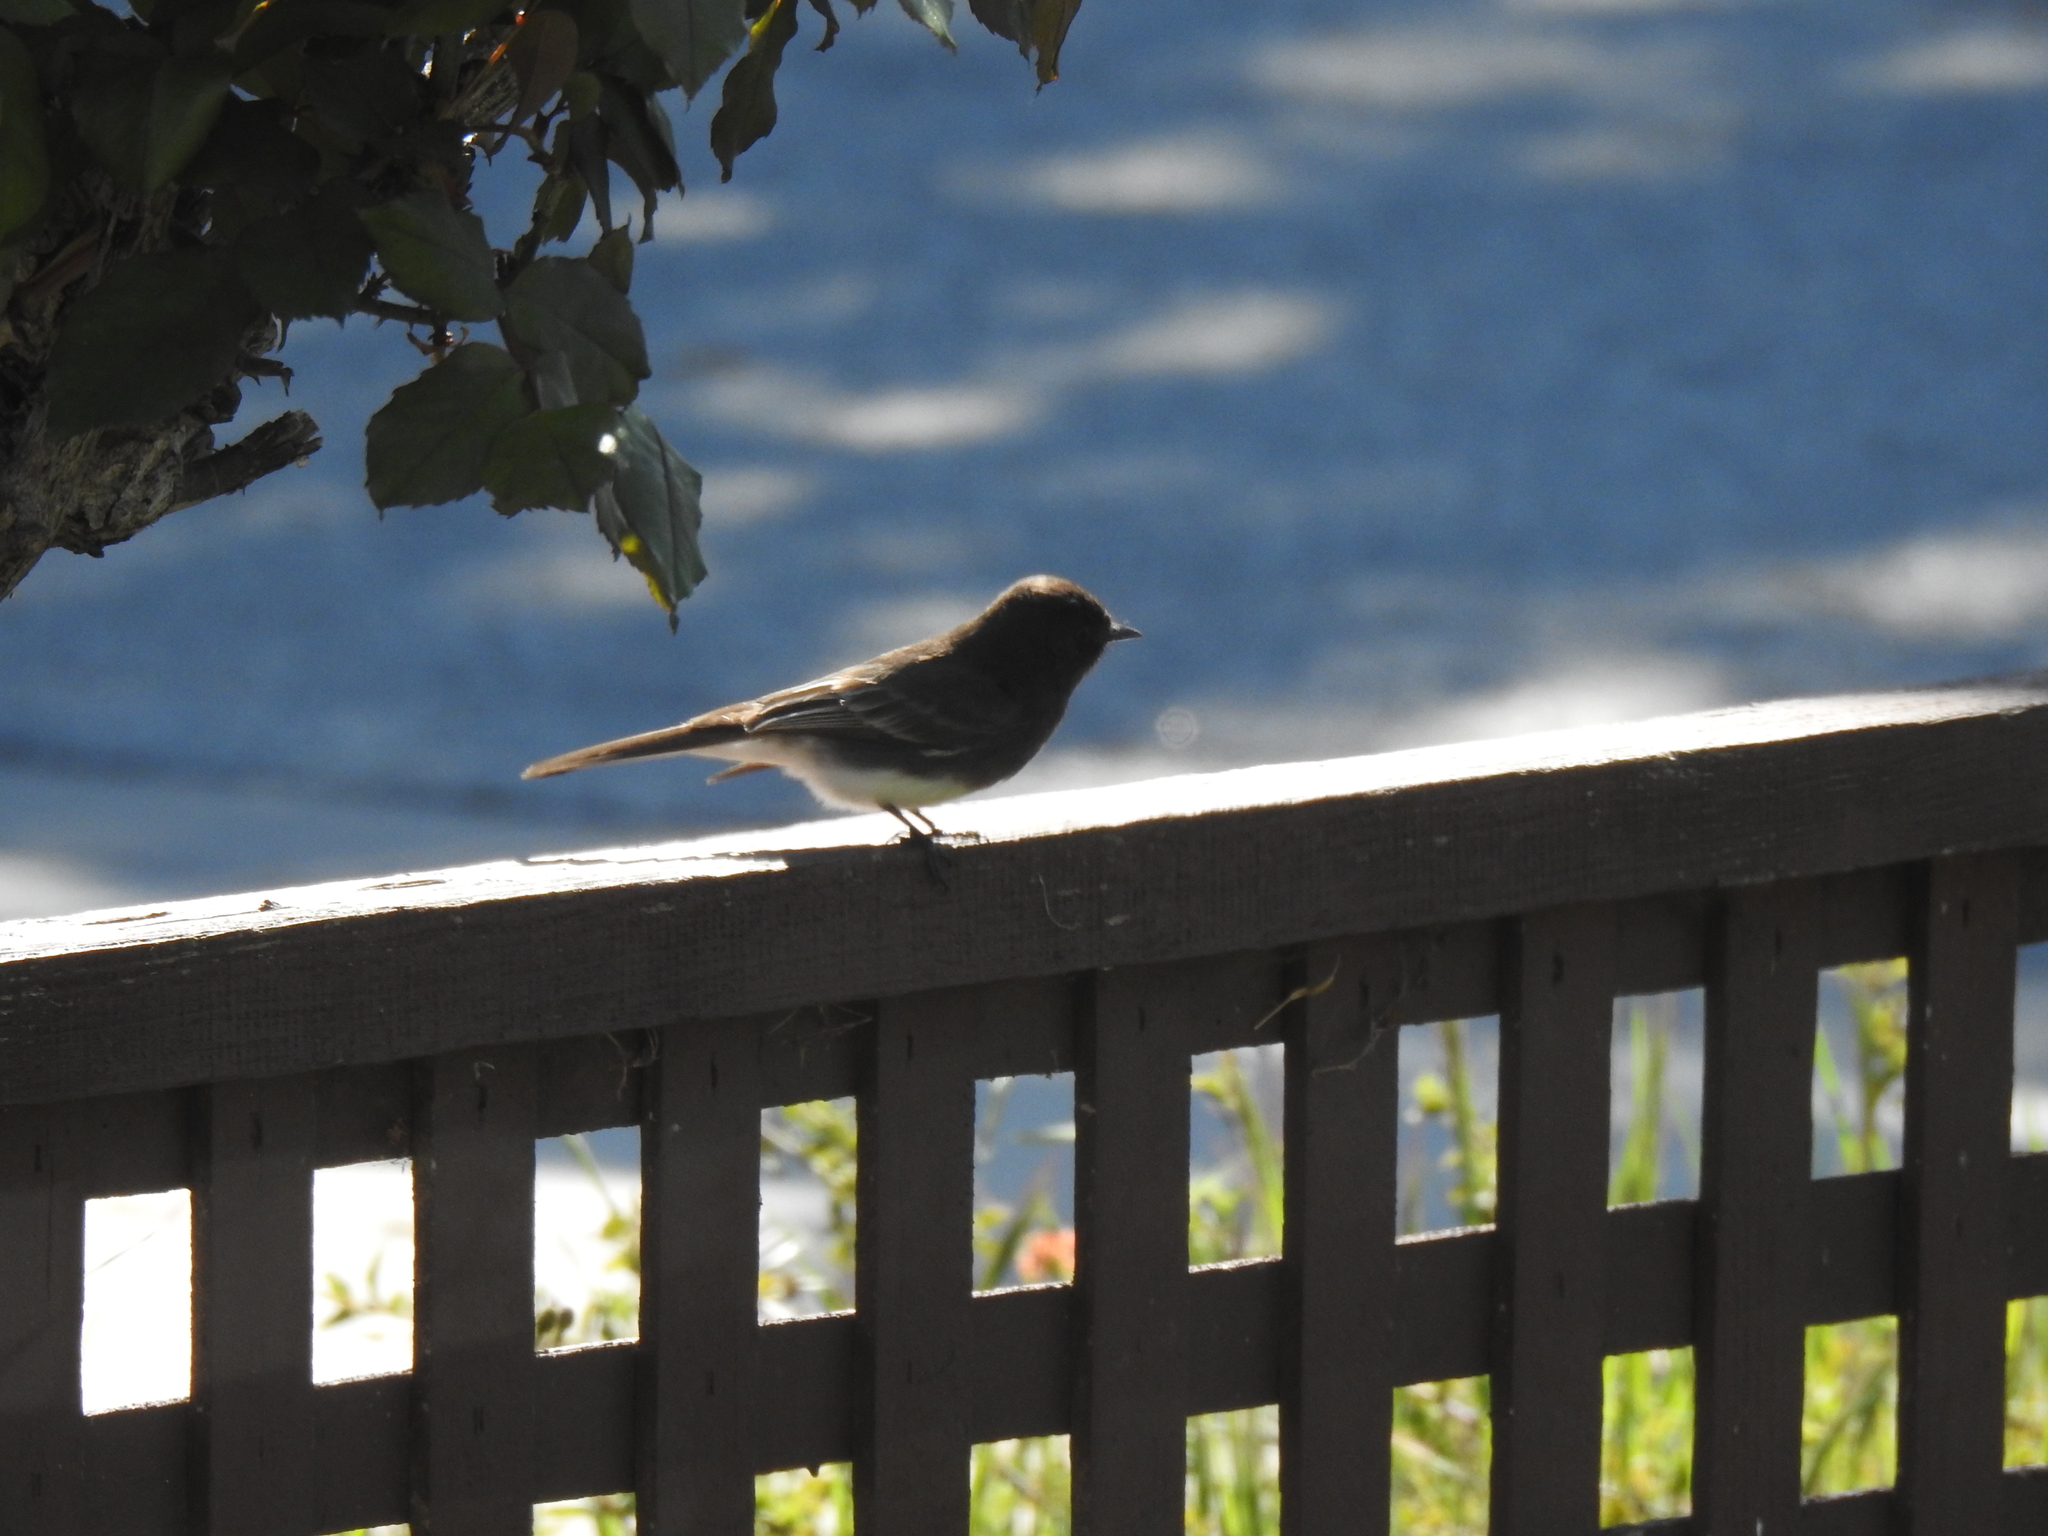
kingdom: Animalia
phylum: Chordata
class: Aves
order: Passeriformes
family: Tyrannidae
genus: Sayornis
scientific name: Sayornis nigricans
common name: Black phoebe
